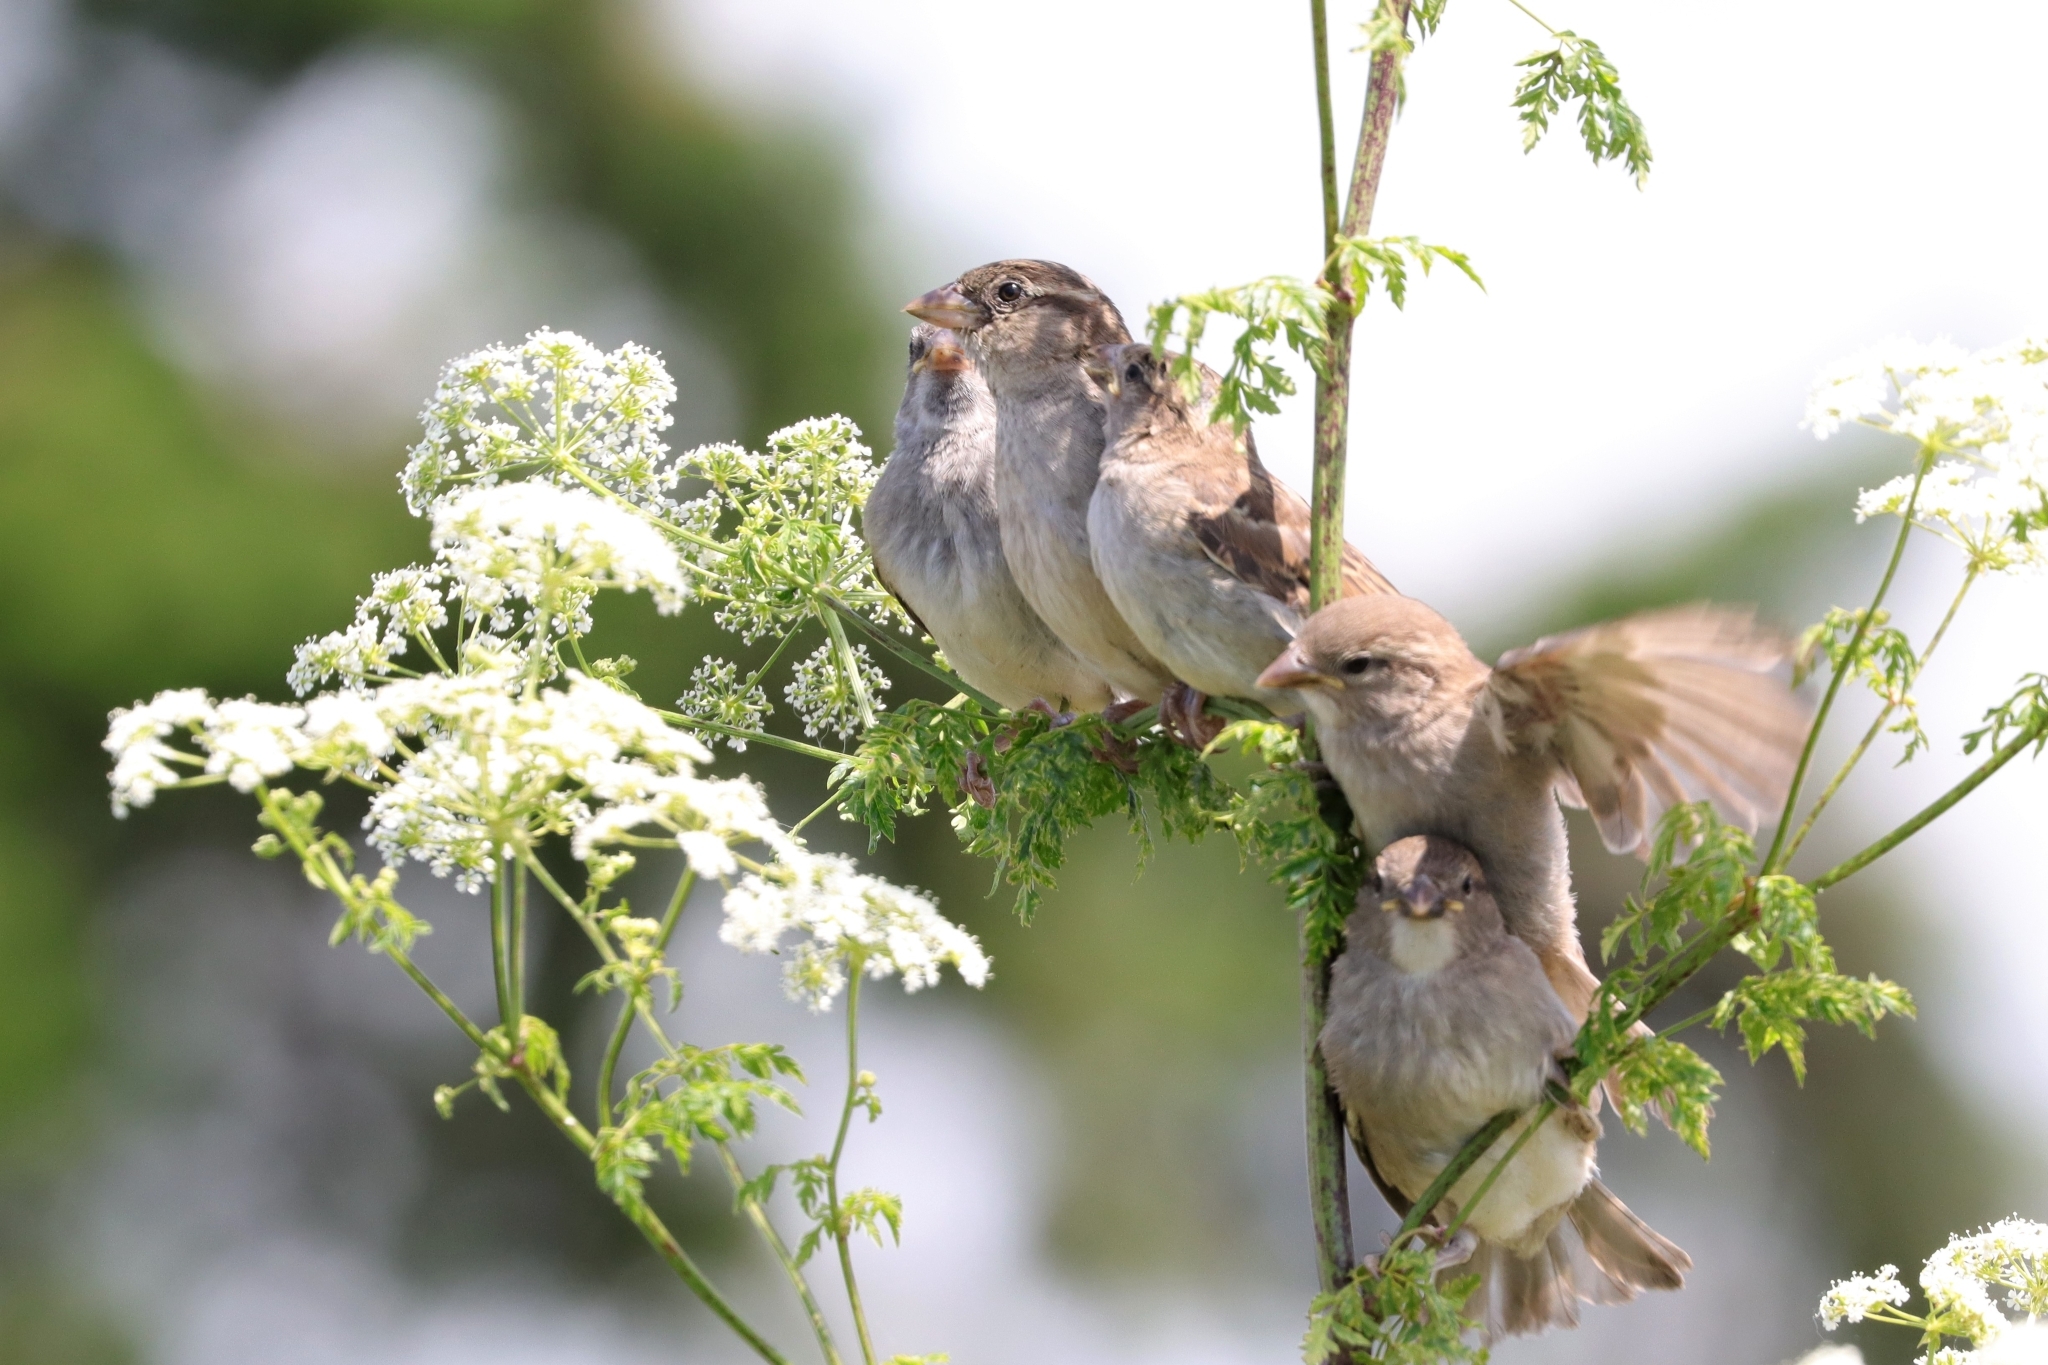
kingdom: Animalia
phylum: Chordata
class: Aves
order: Passeriformes
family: Passeridae
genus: Passer
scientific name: Passer domesticus
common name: House sparrow
